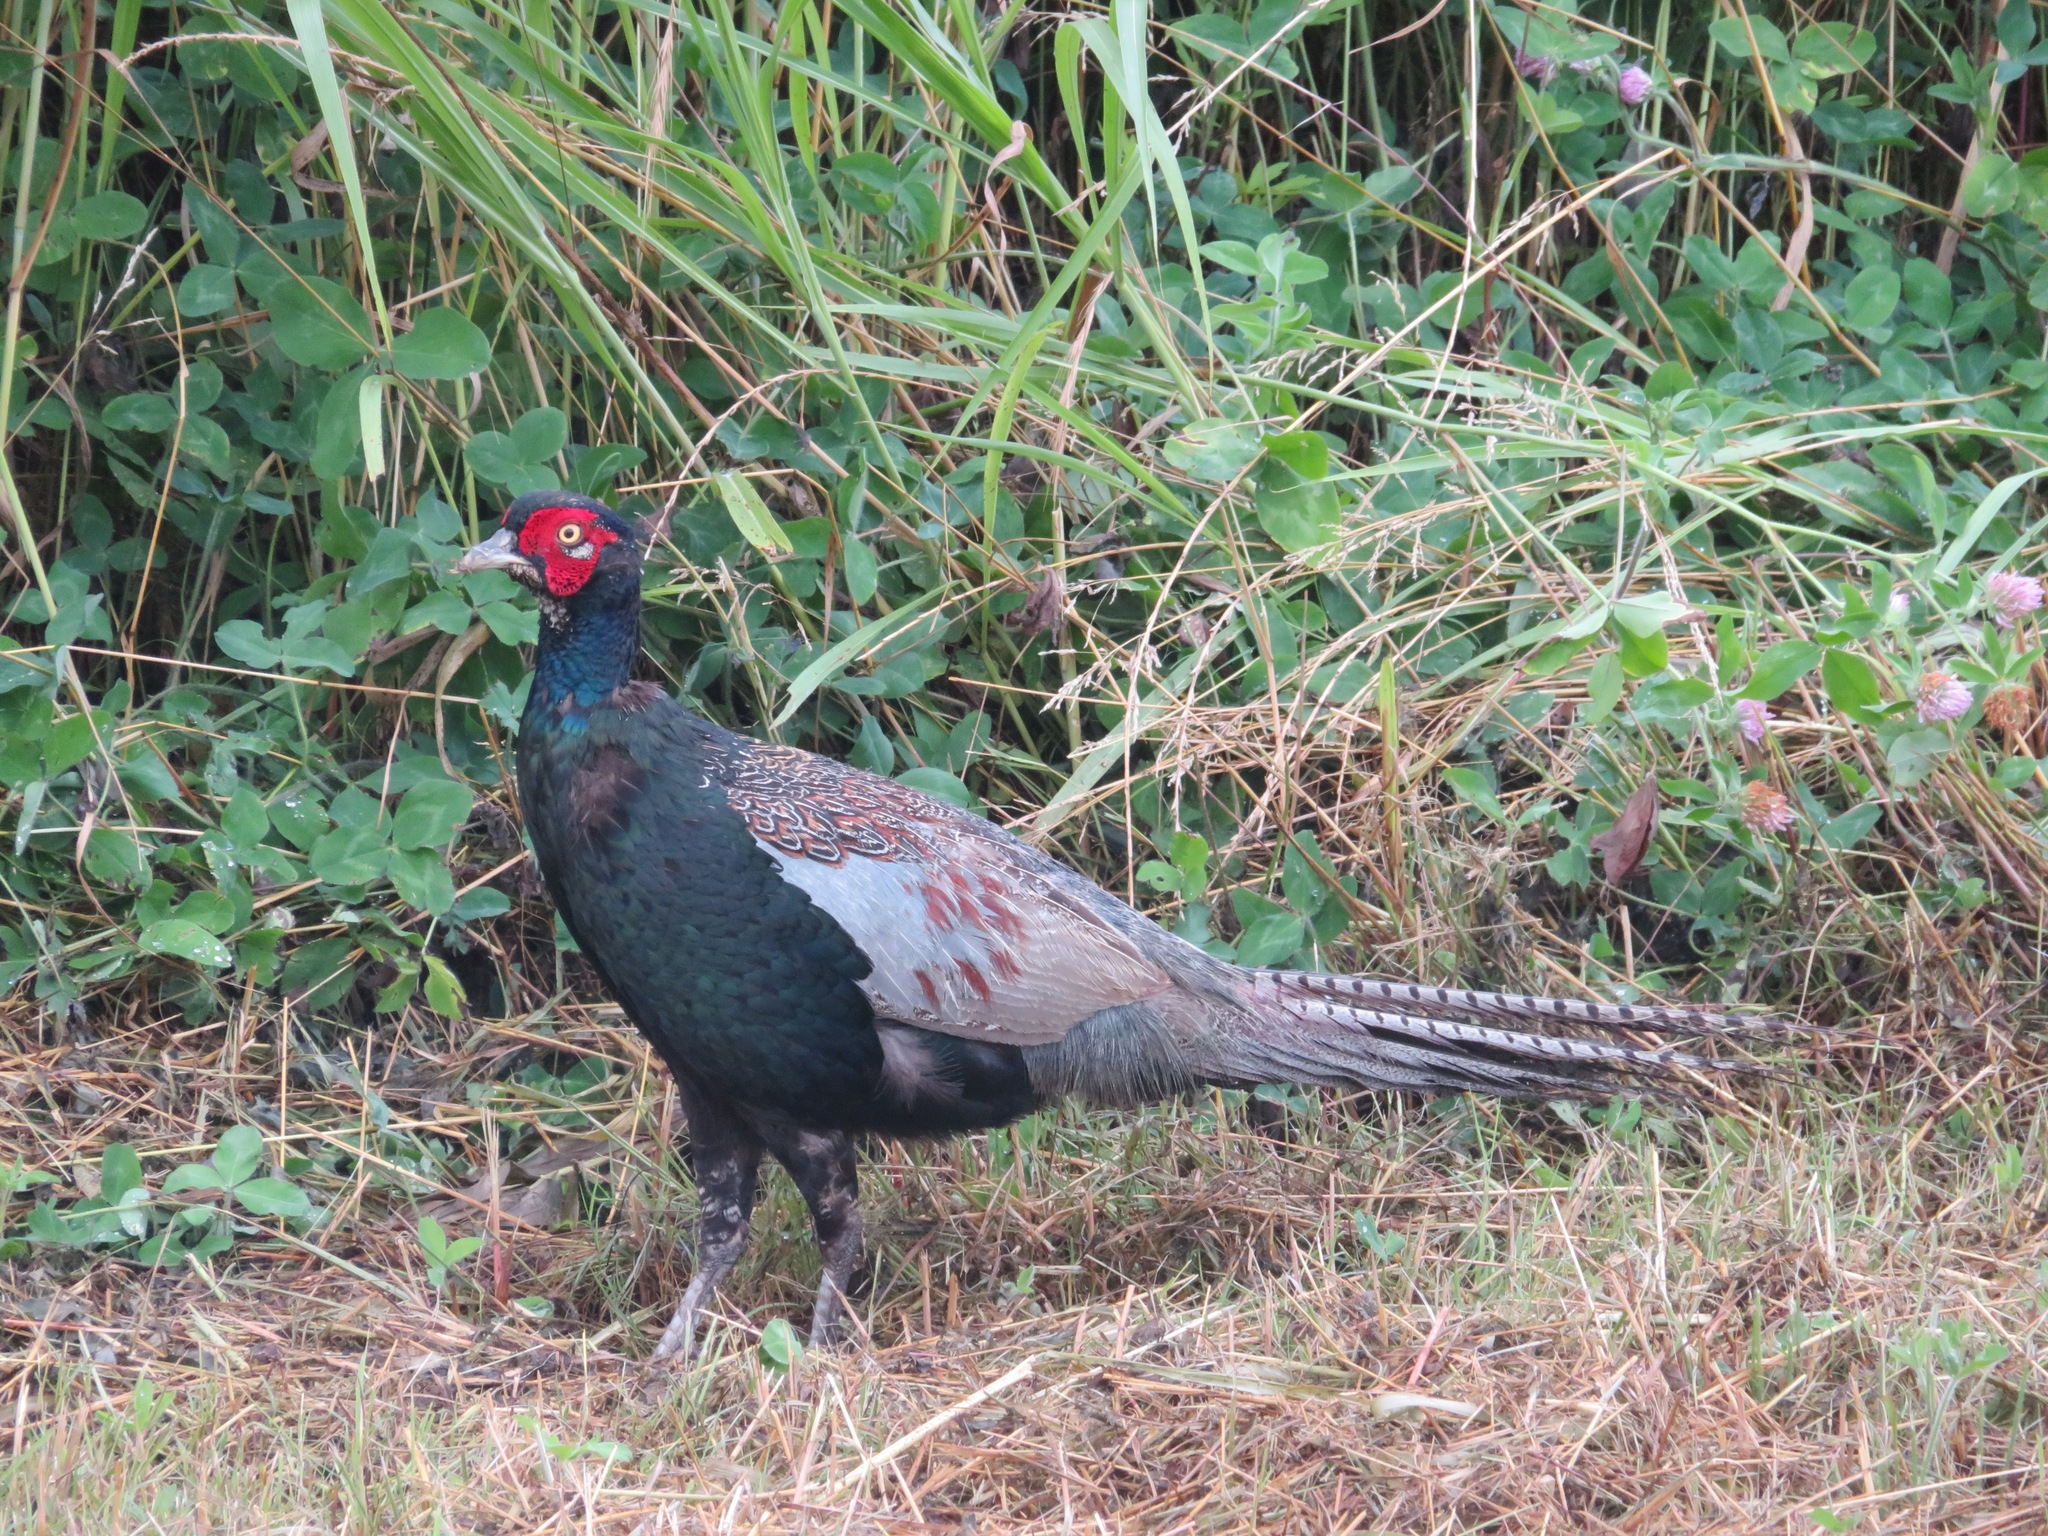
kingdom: Animalia
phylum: Chordata
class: Aves
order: Galliformes
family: Phasianidae
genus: Phasianus
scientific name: Phasianus versicolor
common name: Green pheasant
